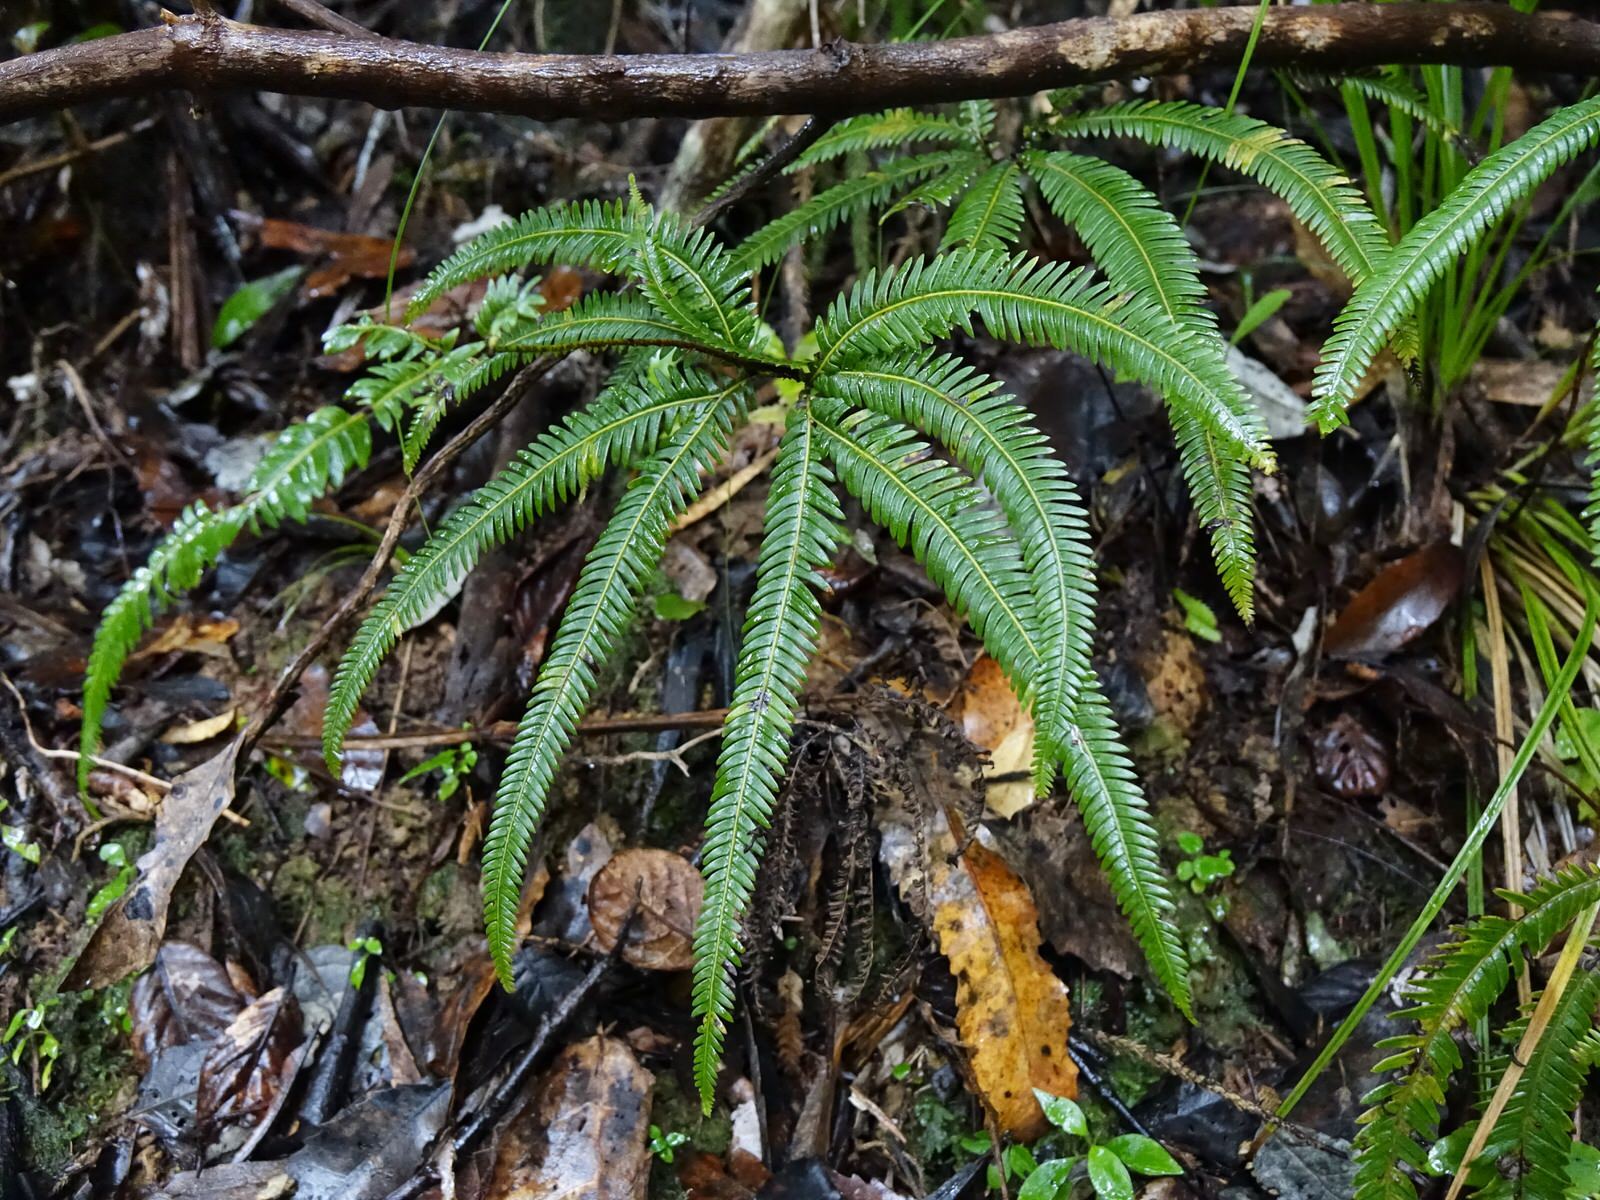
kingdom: Plantae
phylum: Tracheophyta
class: Polypodiopsida
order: Gleicheniales
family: Gleicheniaceae
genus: Sticherus
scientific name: Sticherus cunninghamii
